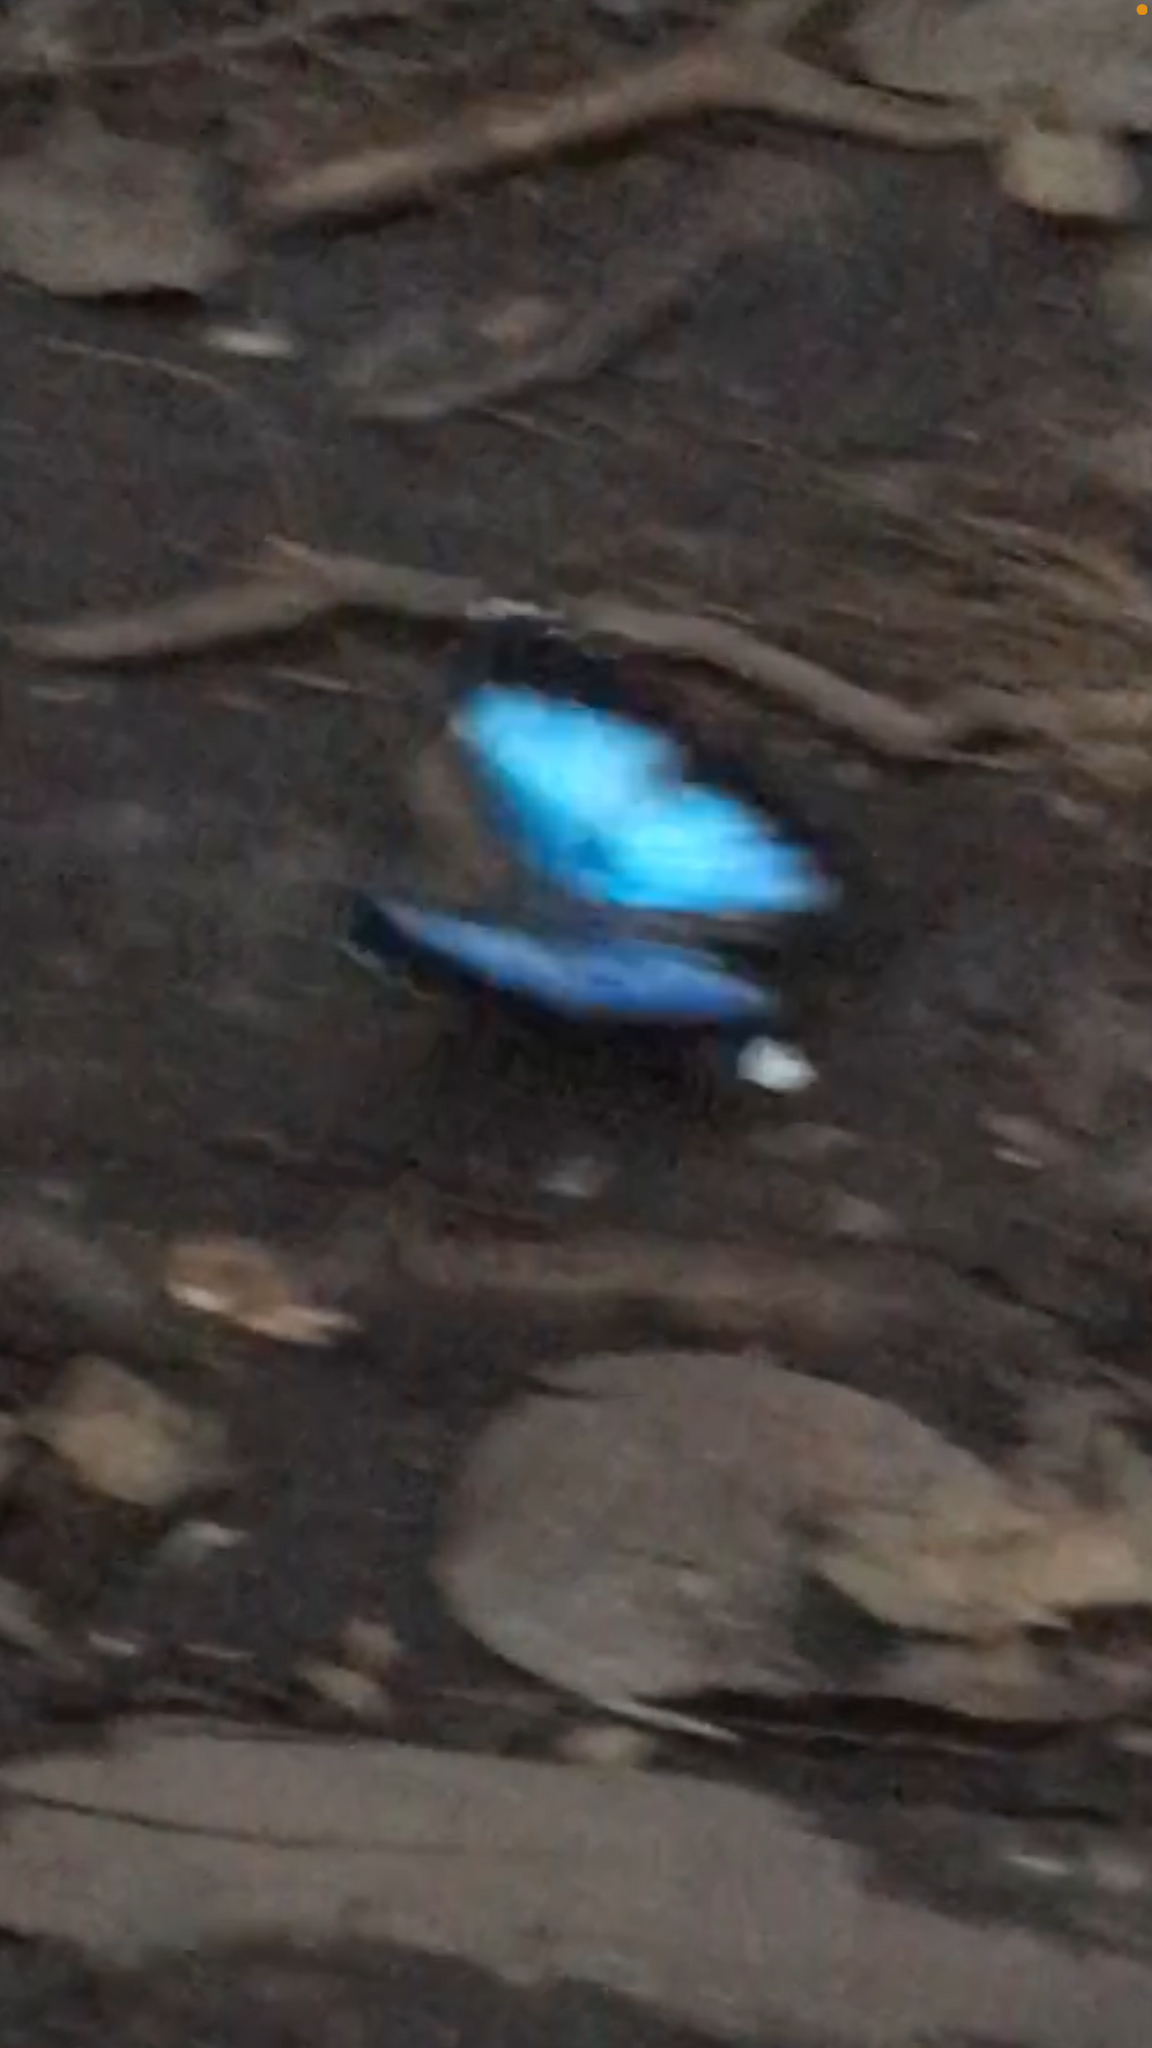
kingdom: Animalia
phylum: Arthropoda
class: Insecta
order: Lepidoptera
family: Nymphalidae
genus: Morpho
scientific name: Morpho helenor
